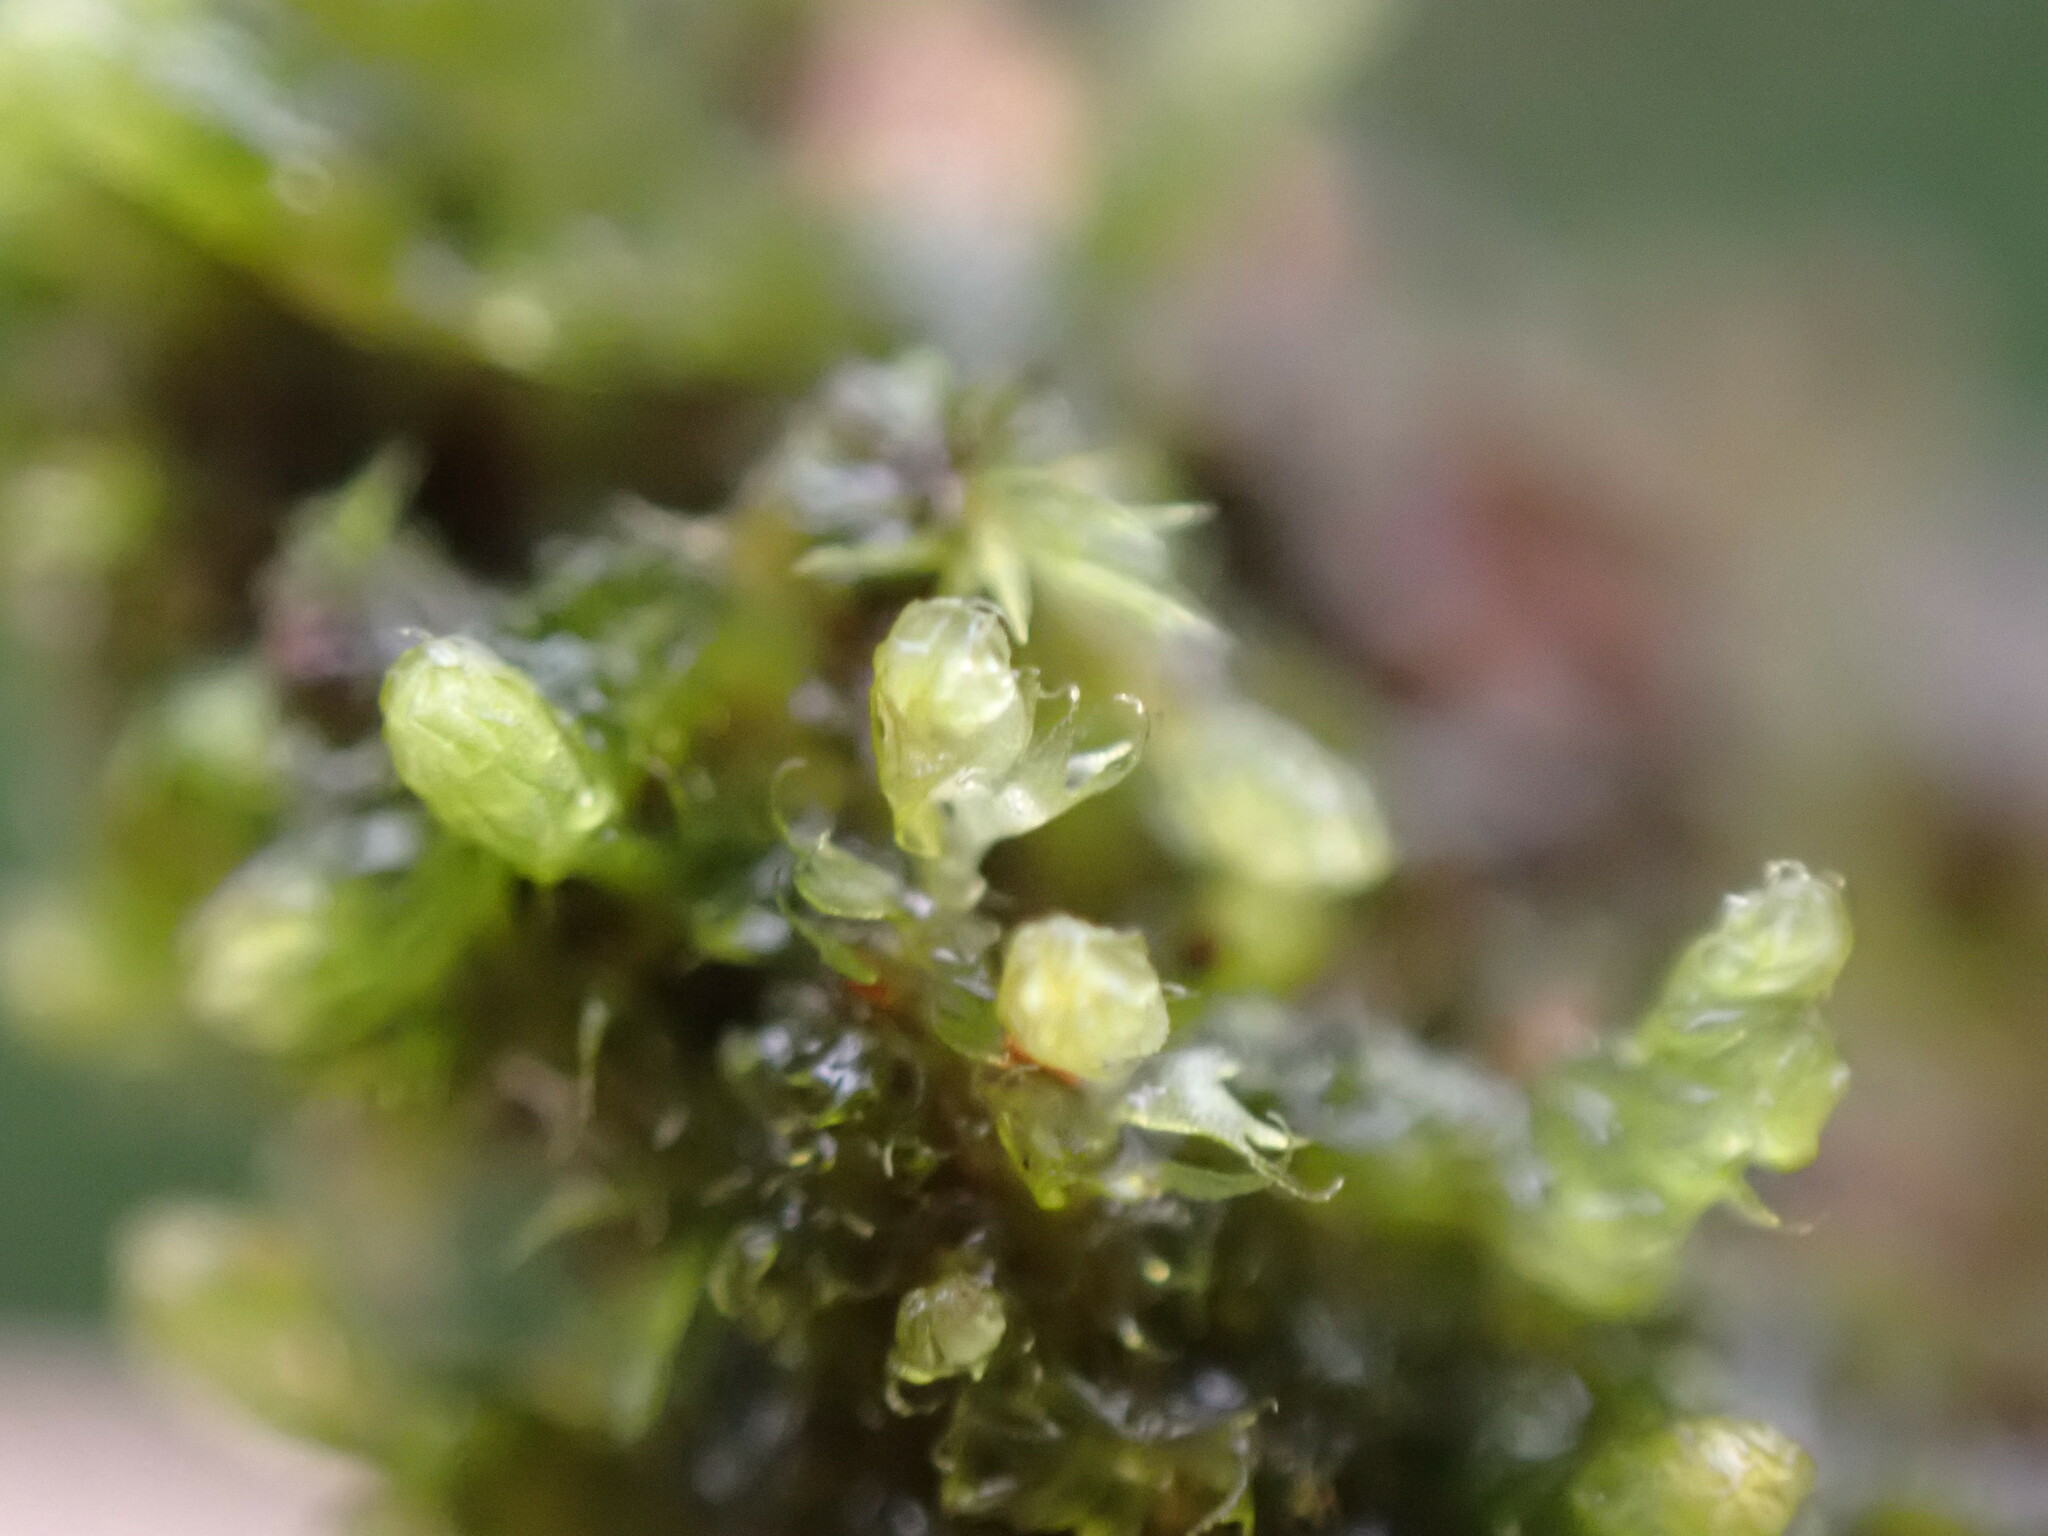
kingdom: Plantae
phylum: Marchantiophyta
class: Jungermanniopsida
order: Ptilidiales
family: Ptilidiaceae
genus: Ptilidium
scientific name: Ptilidium californicum
